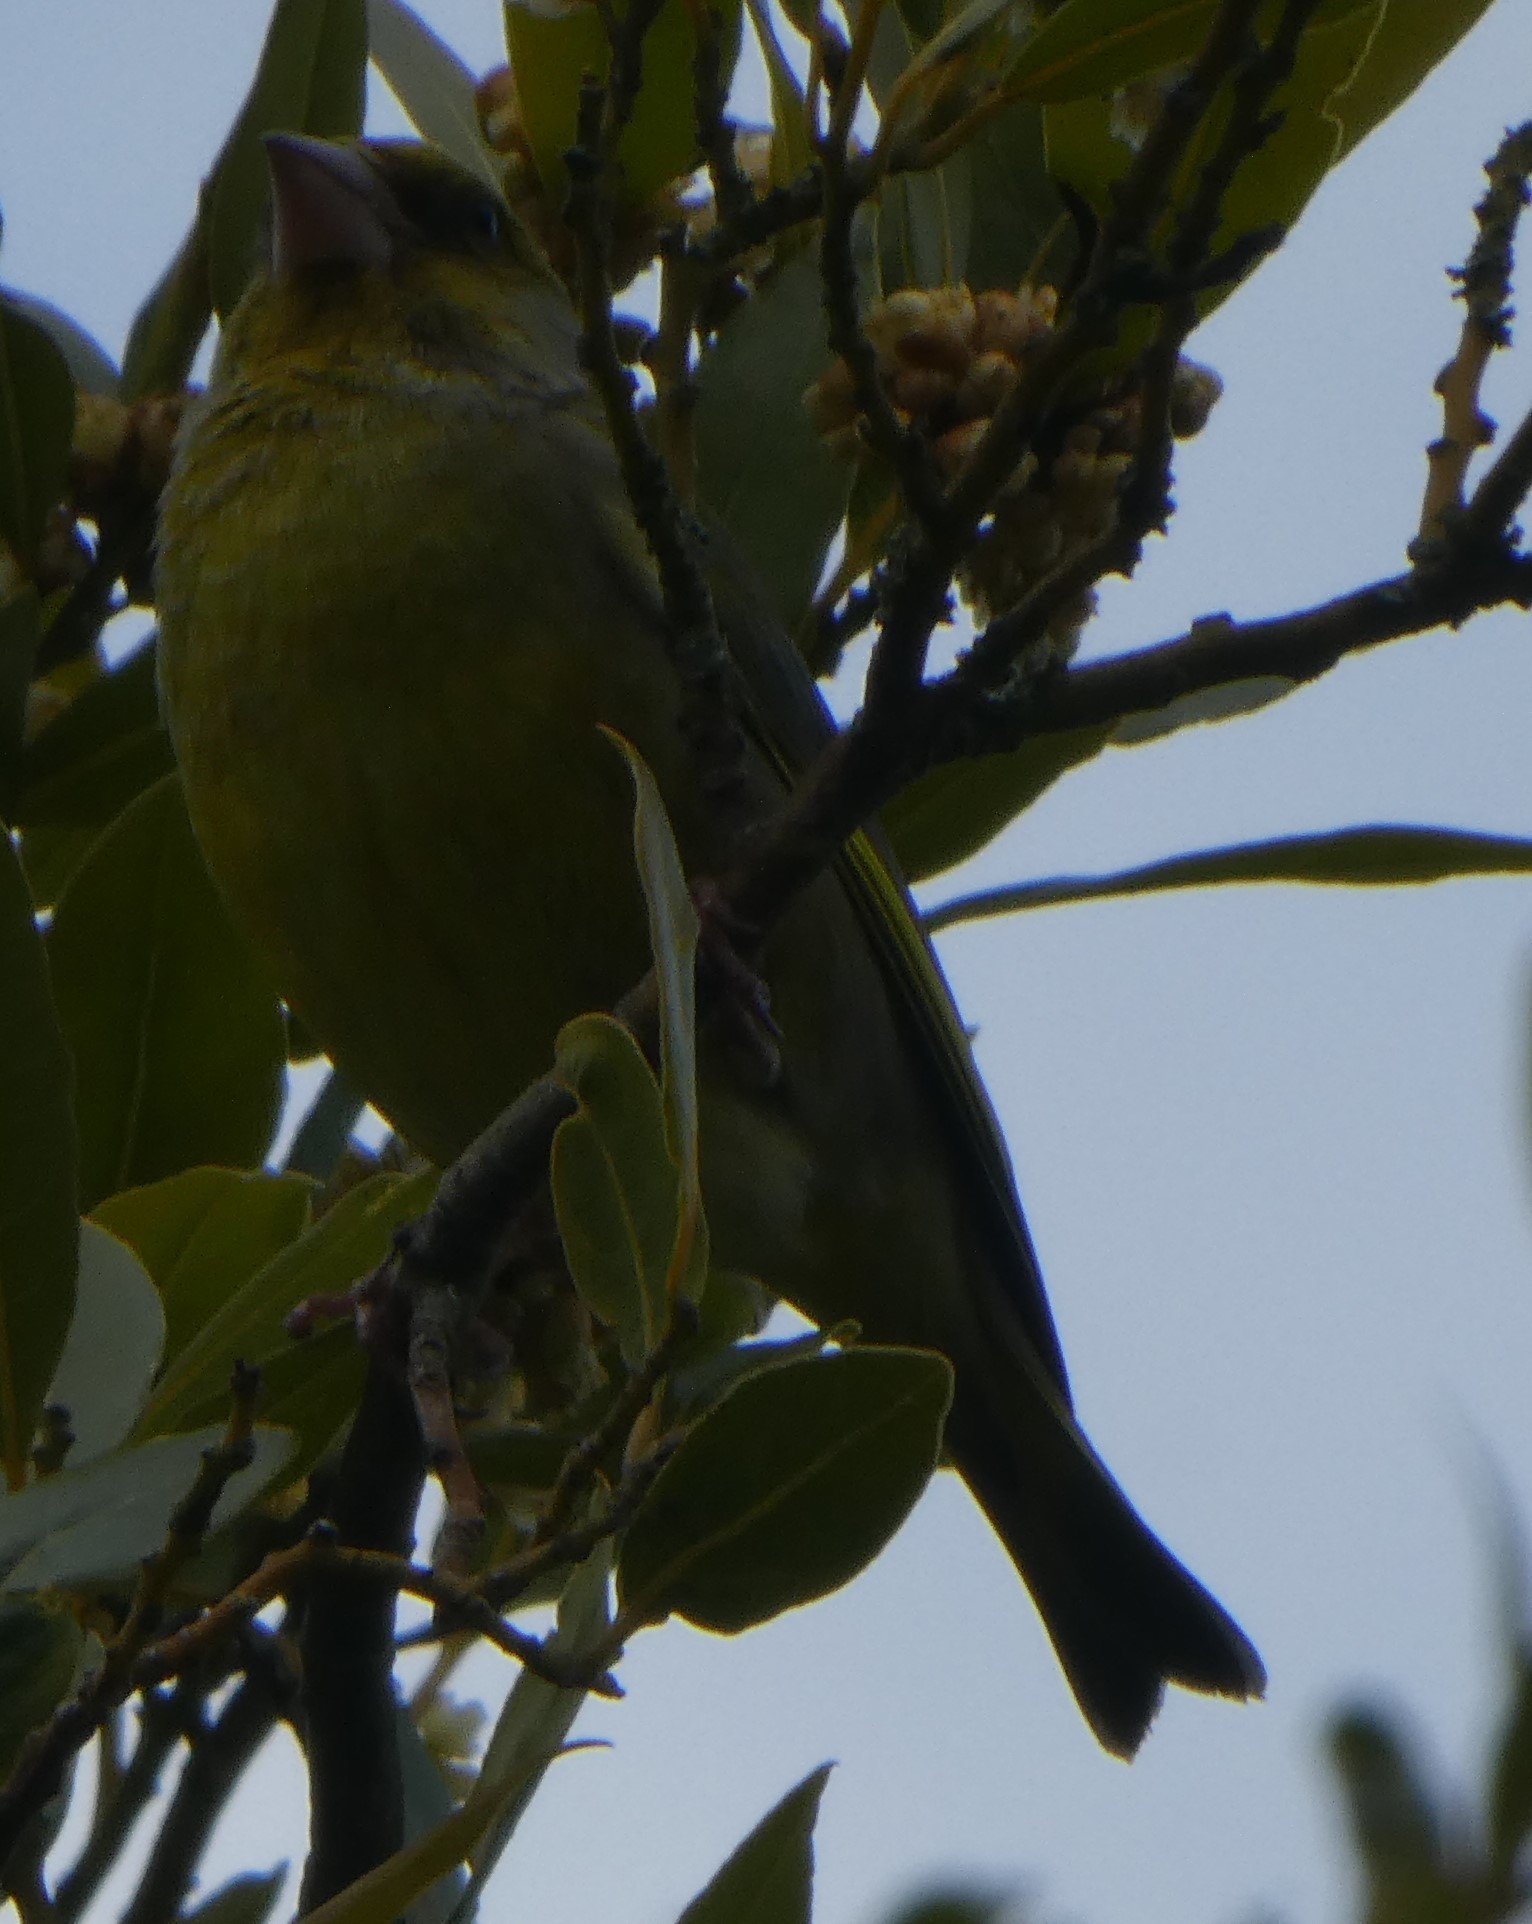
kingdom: Plantae
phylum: Tracheophyta
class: Liliopsida
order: Poales
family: Poaceae
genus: Chloris
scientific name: Chloris chloris
